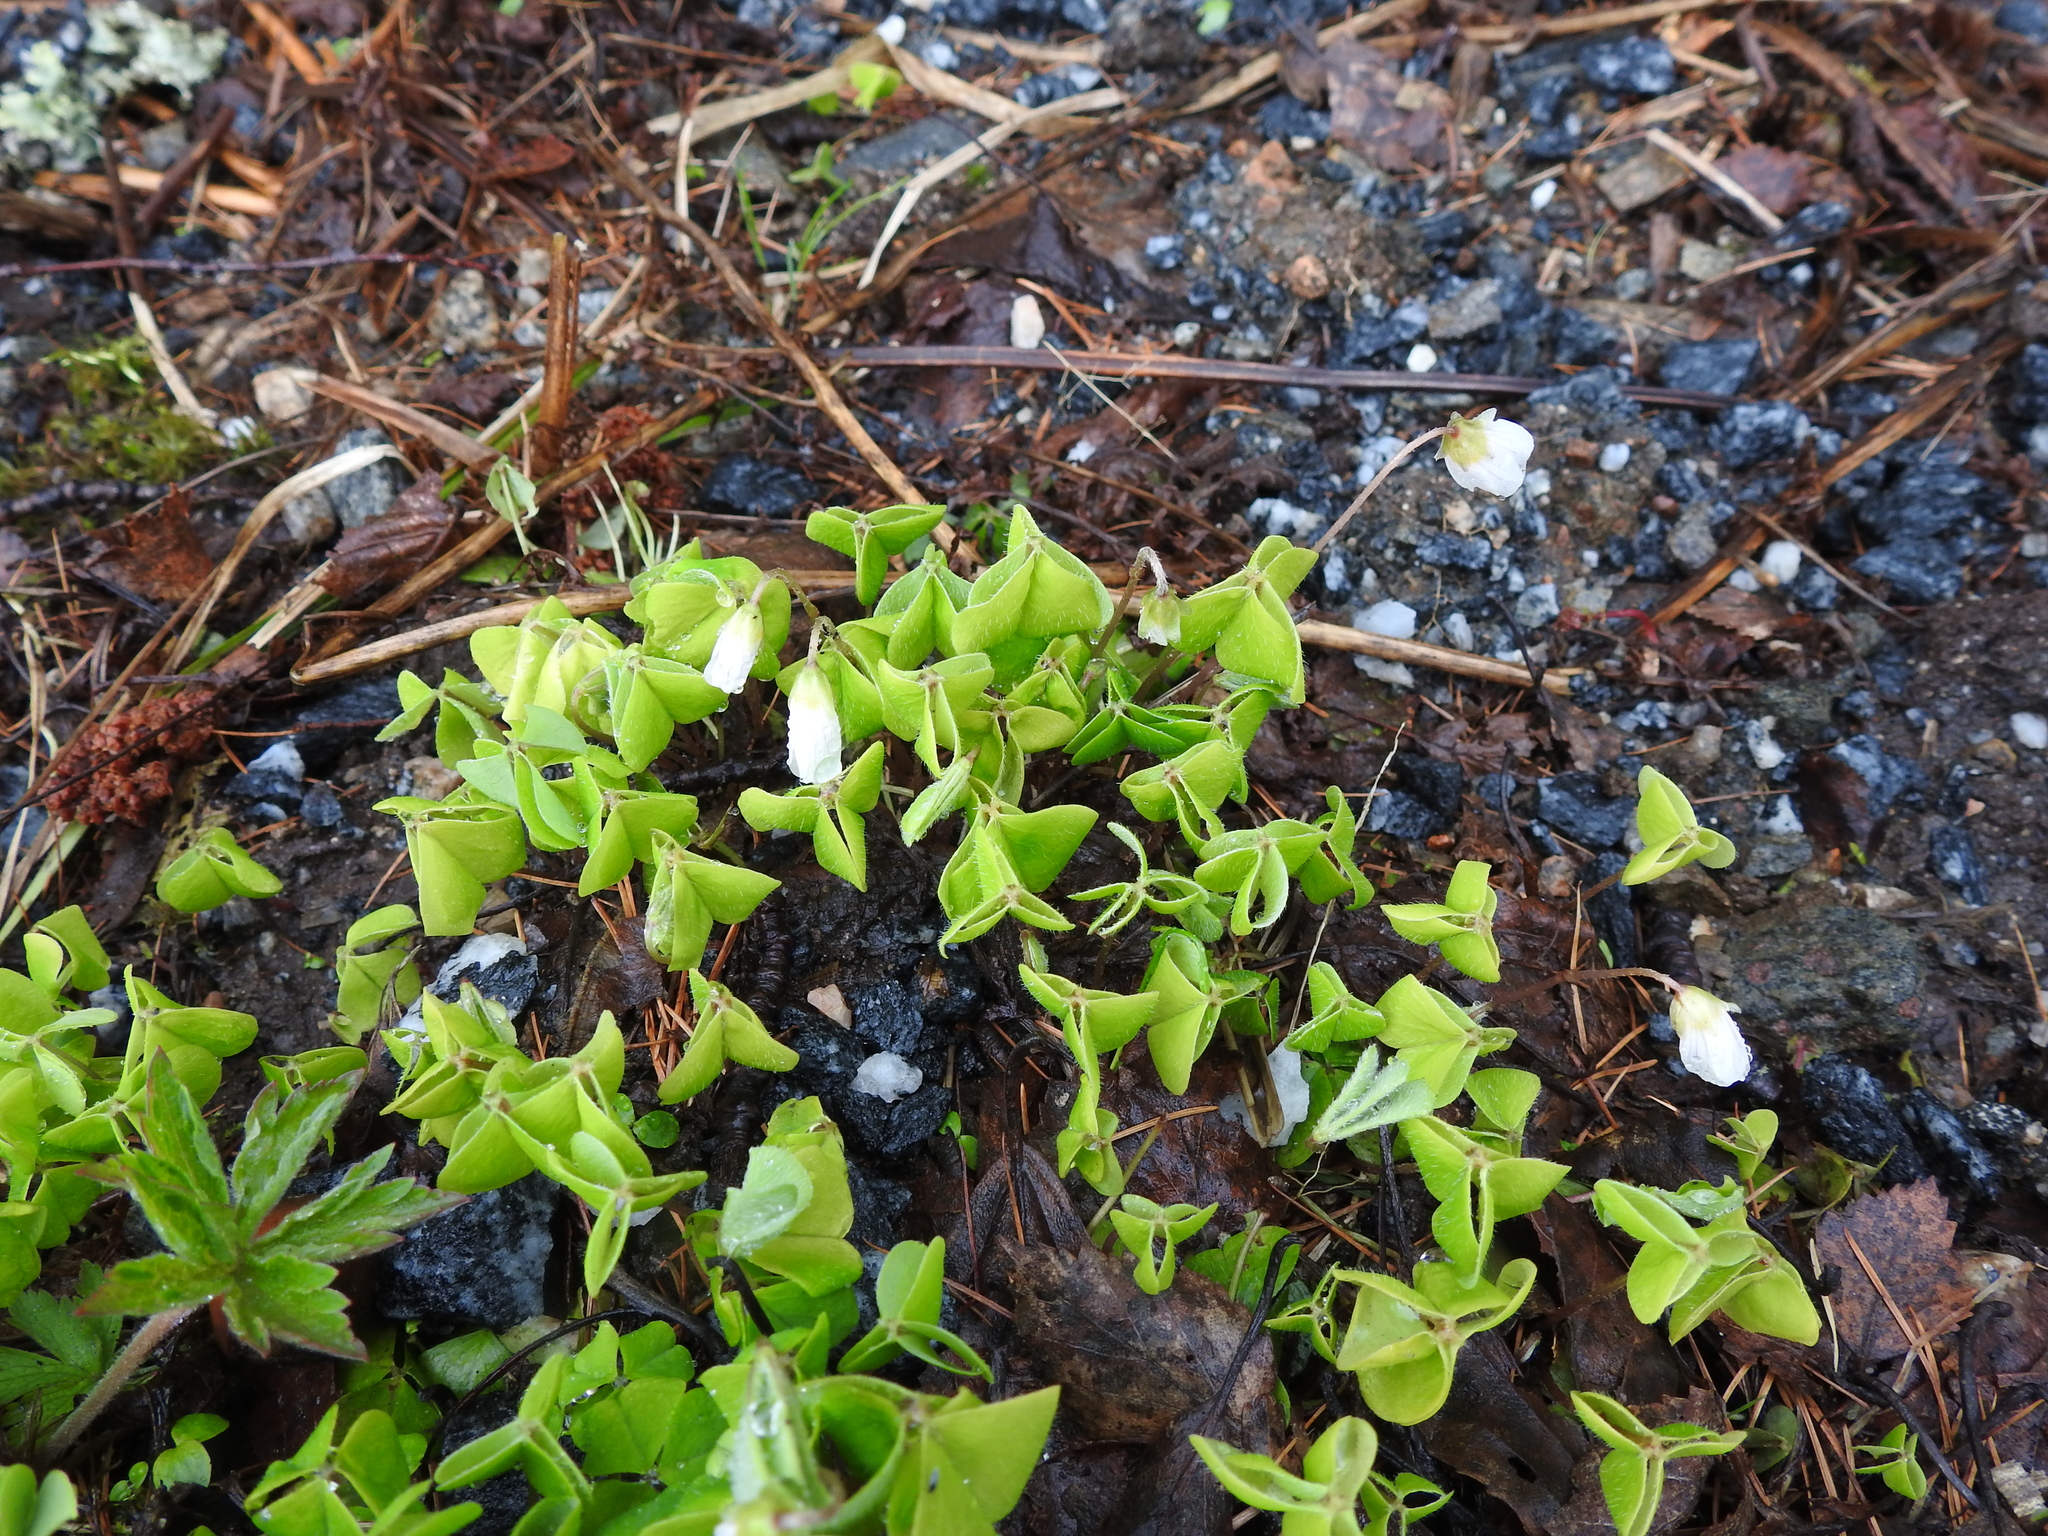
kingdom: Plantae
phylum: Tracheophyta
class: Magnoliopsida
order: Oxalidales
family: Oxalidaceae
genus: Oxalis
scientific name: Oxalis acetosella
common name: Wood-sorrel
